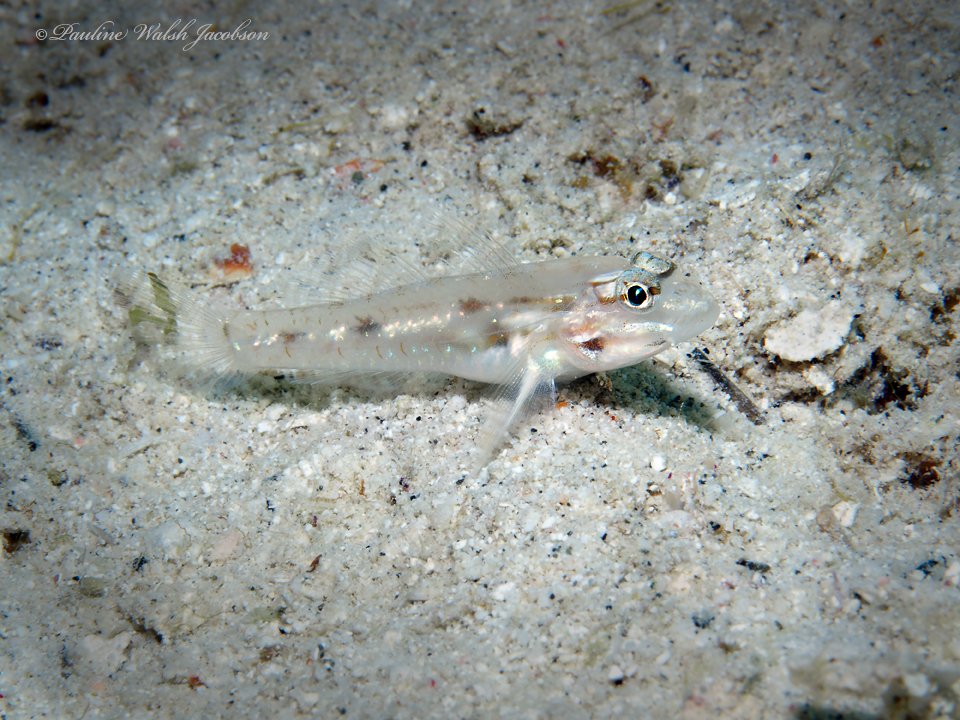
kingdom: Animalia
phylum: Chordata
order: Perciformes
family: Gobiidae
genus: Coryphopterus
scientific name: Coryphopterus tortugae
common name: Patch-reef goby
